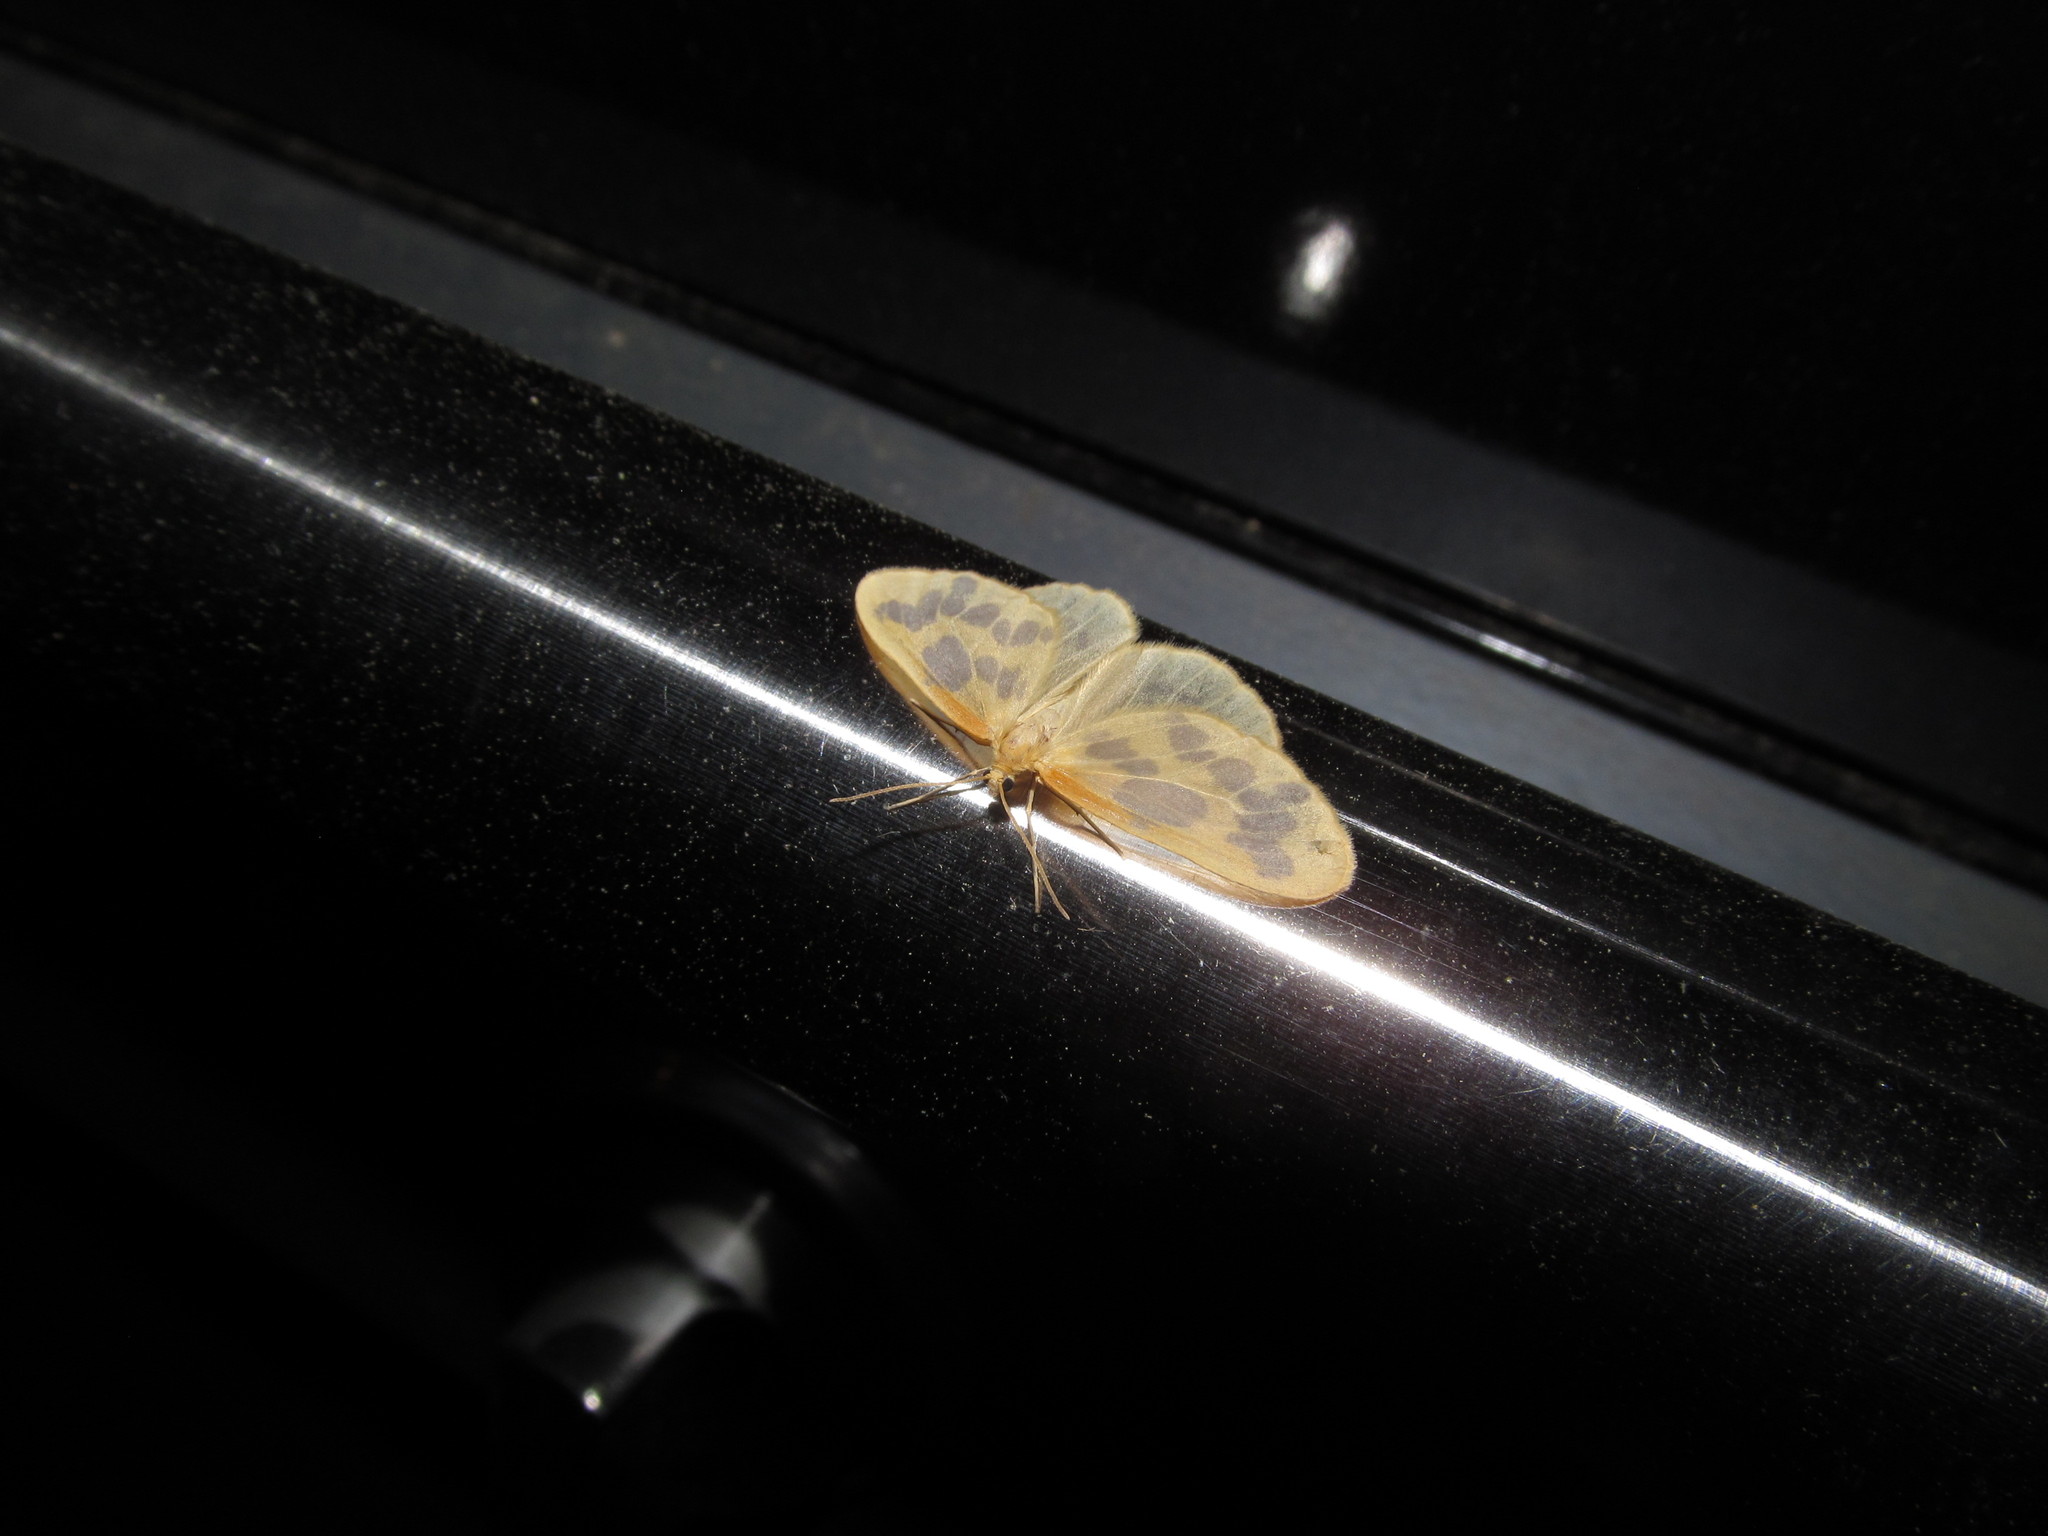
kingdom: Animalia
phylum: Arthropoda
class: Insecta
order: Lepidoptera
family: Geometridae
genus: Eubaphe
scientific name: Eubaphe mendica
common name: Beggar
